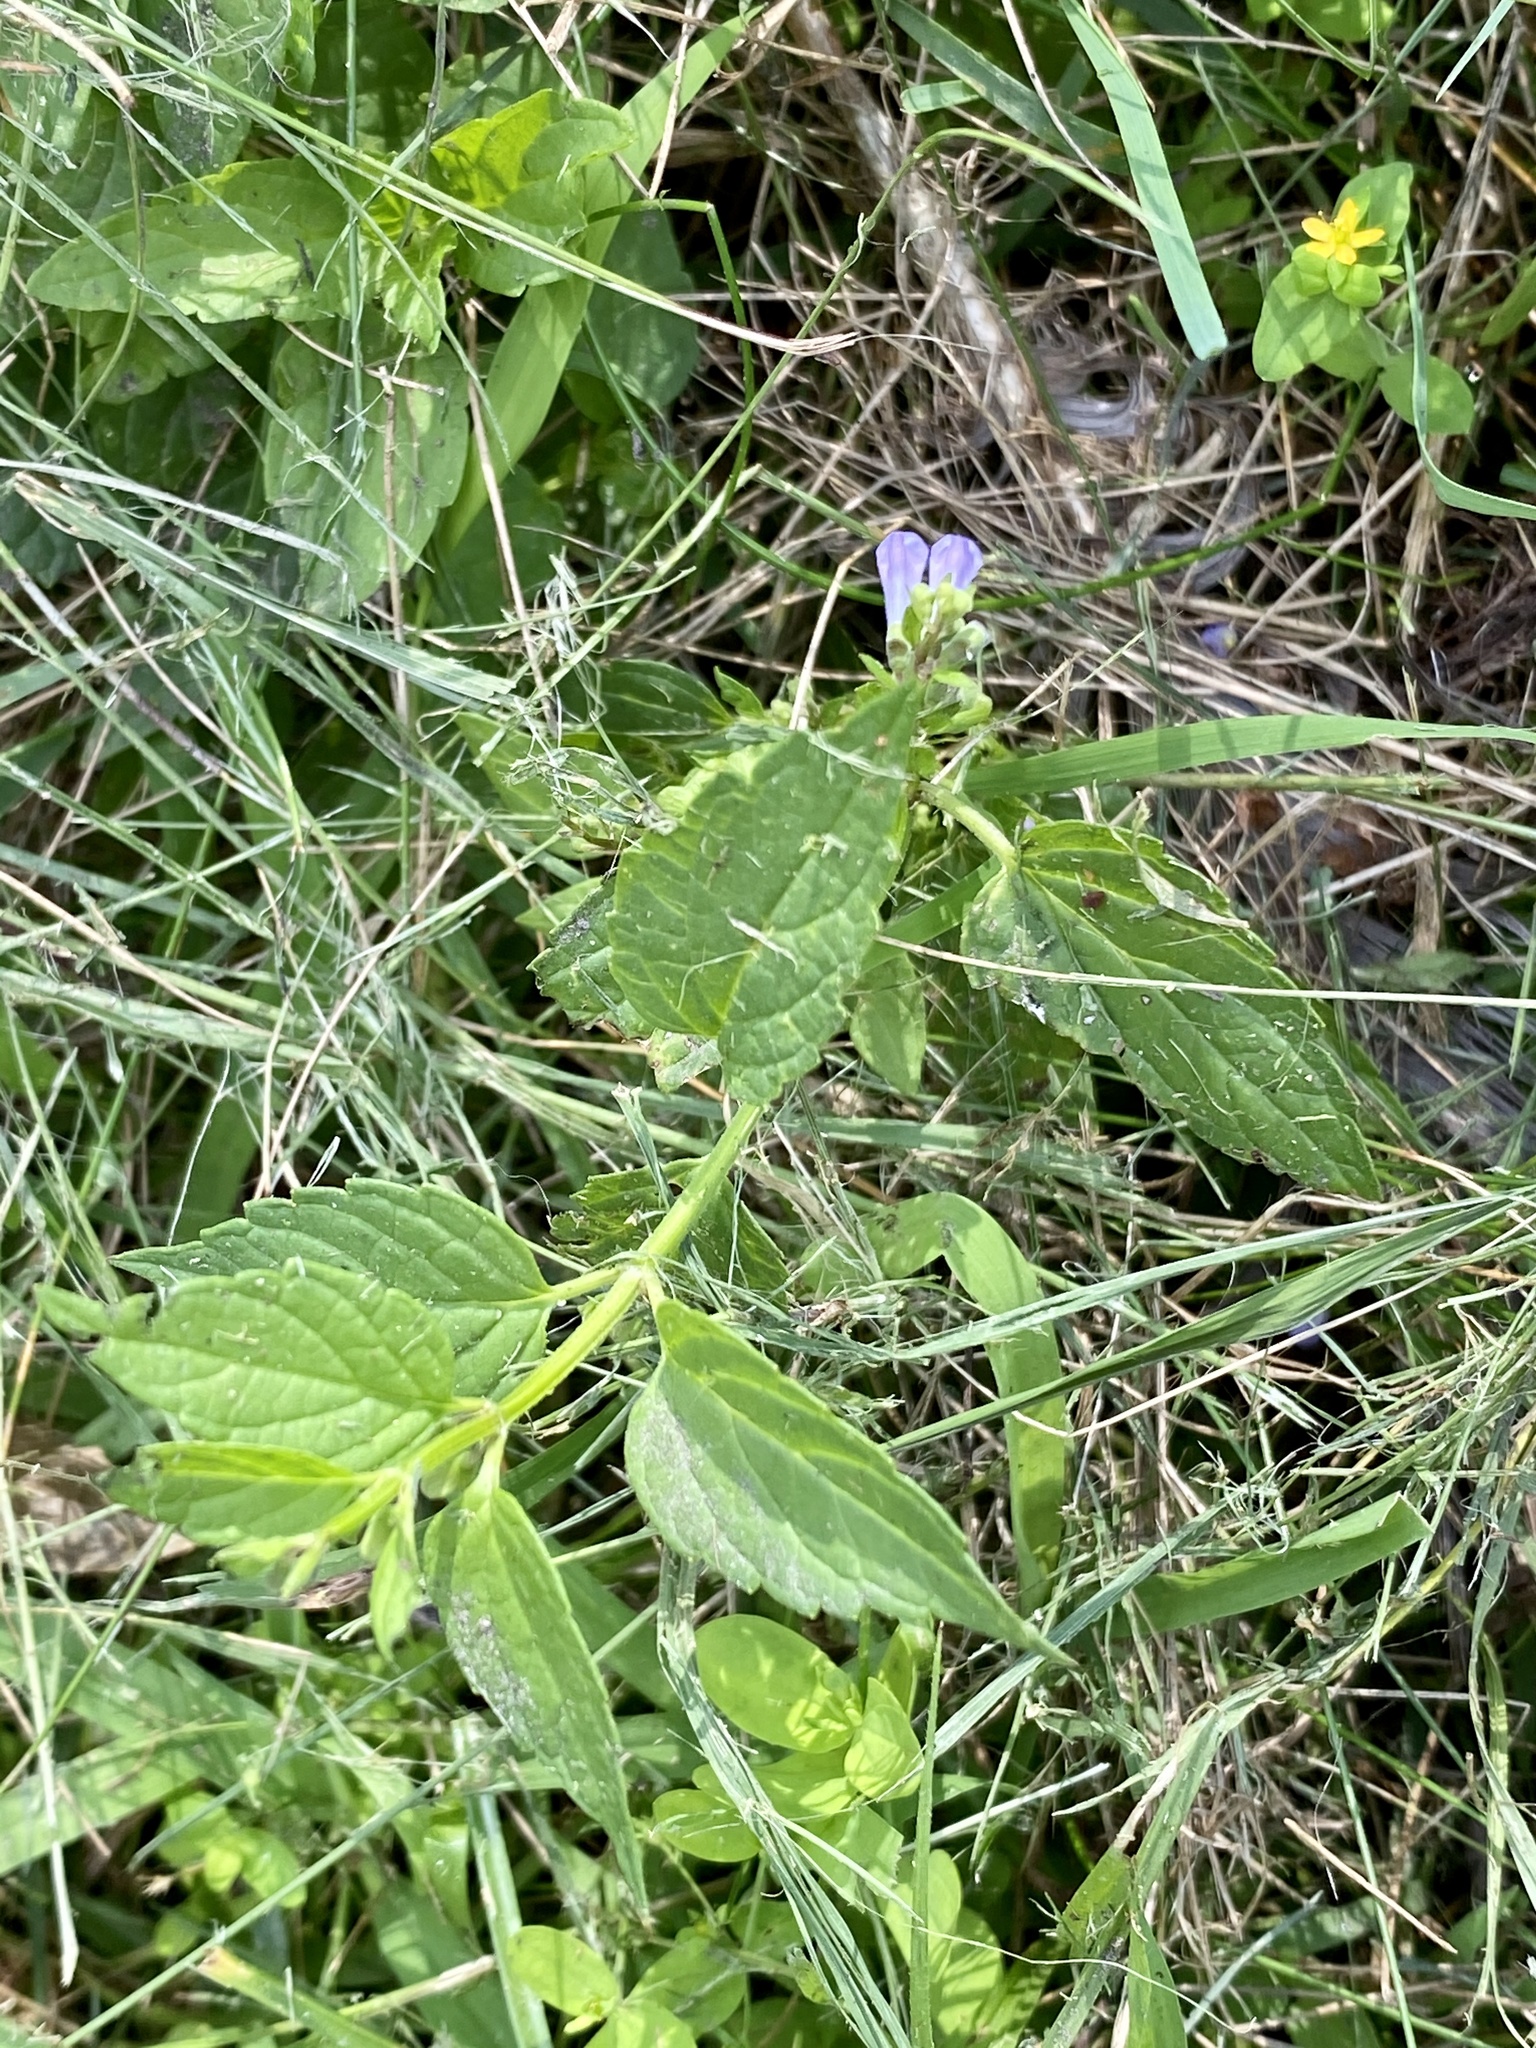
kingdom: Plantae
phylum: Tracheophyta
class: Magnoliopsida
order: Lamiales
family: Lamiaceae
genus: Scutellaria
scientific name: Scutellaria lateriflora
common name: Blue skullcap
